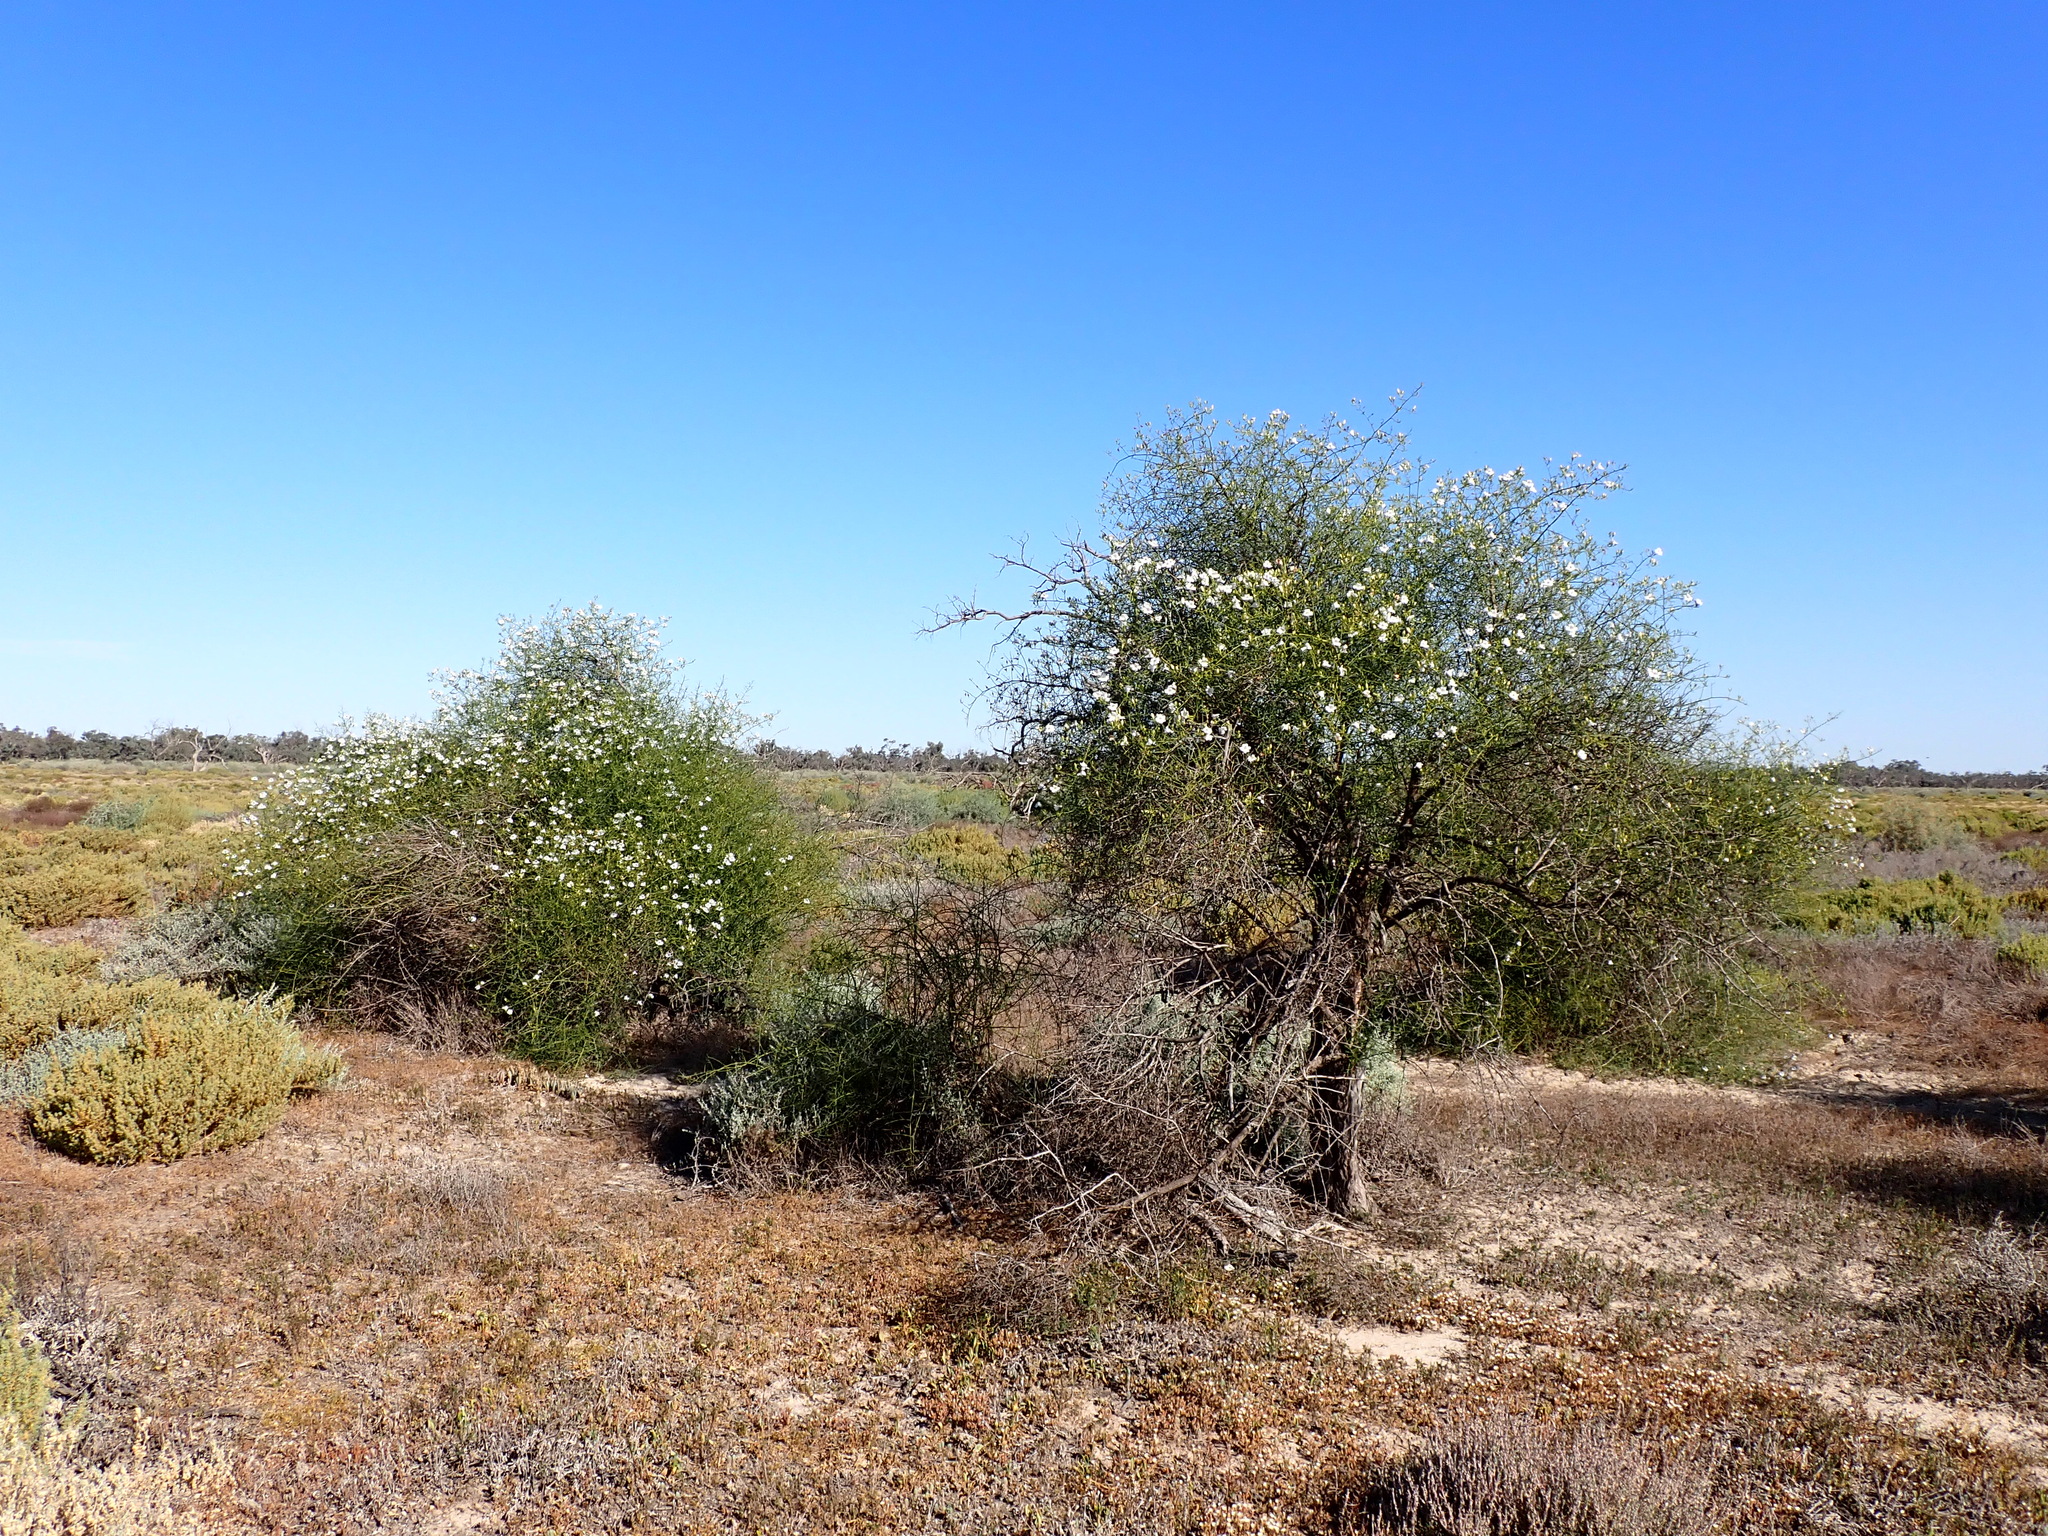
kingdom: Plantae
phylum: Tracheophyta
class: Magnoliopsida
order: Lamiales
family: Scrophulariaceae
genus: Eremophila
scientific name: Eremophila polyclada
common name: Lignum-fuchsia
